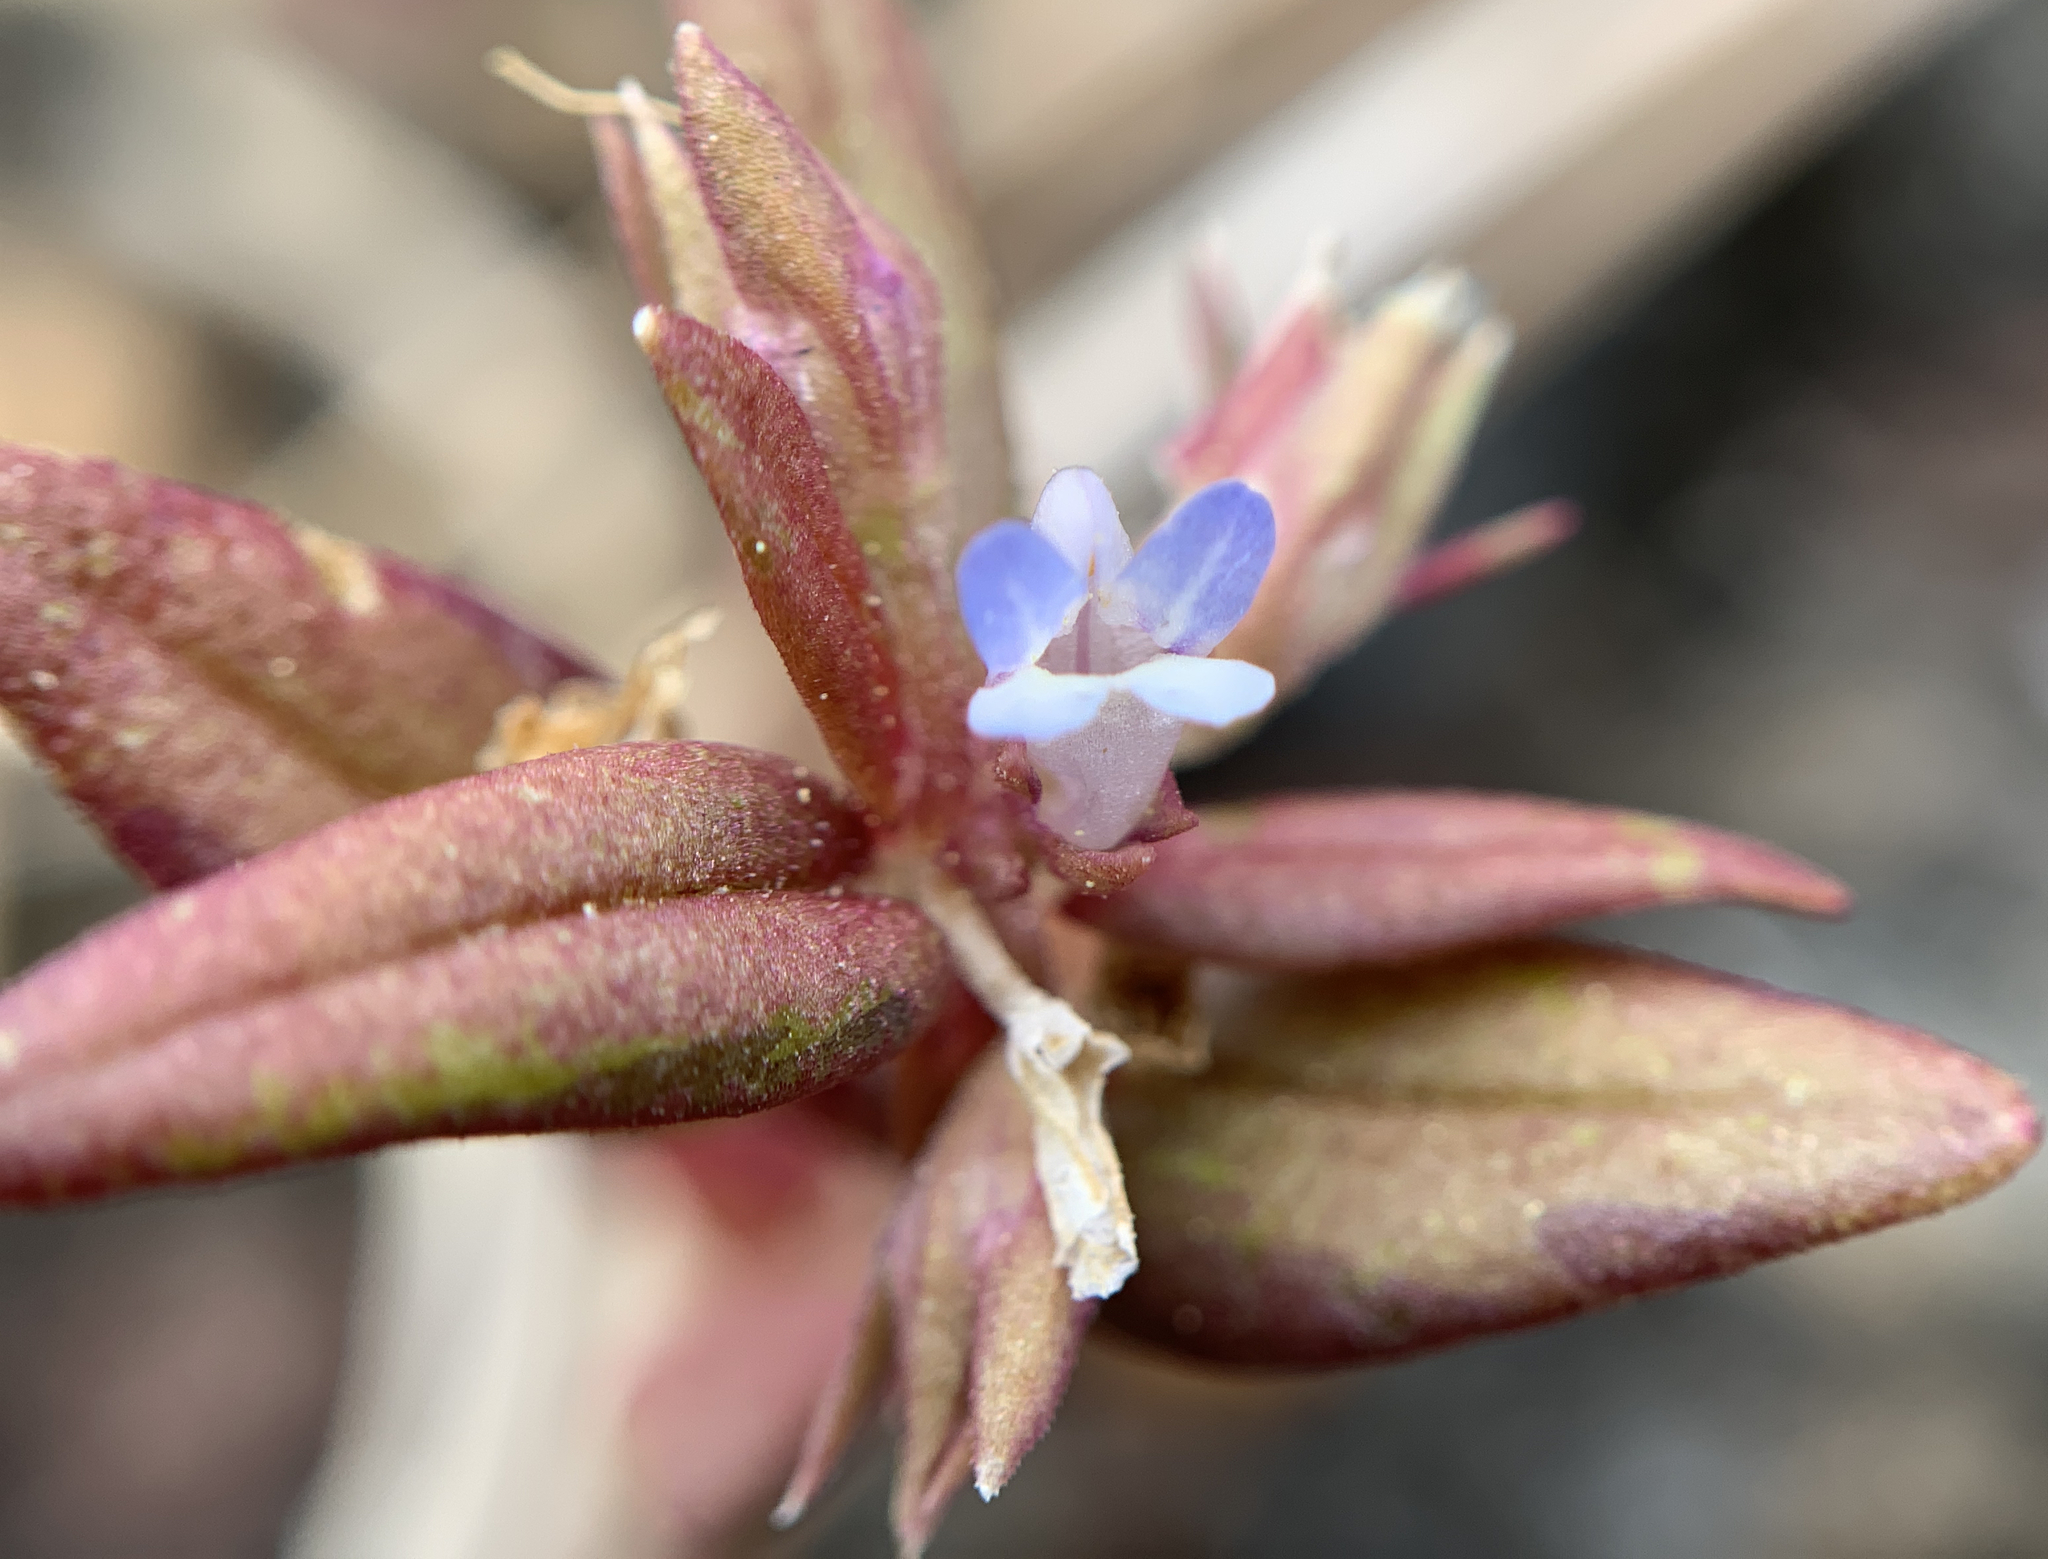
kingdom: Plantae
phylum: Tracheophyta
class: Magnoliopsida
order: Lamiales
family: Plantaginaceae
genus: Collinsia
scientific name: Collinsia parviflora
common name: Blue-lips
